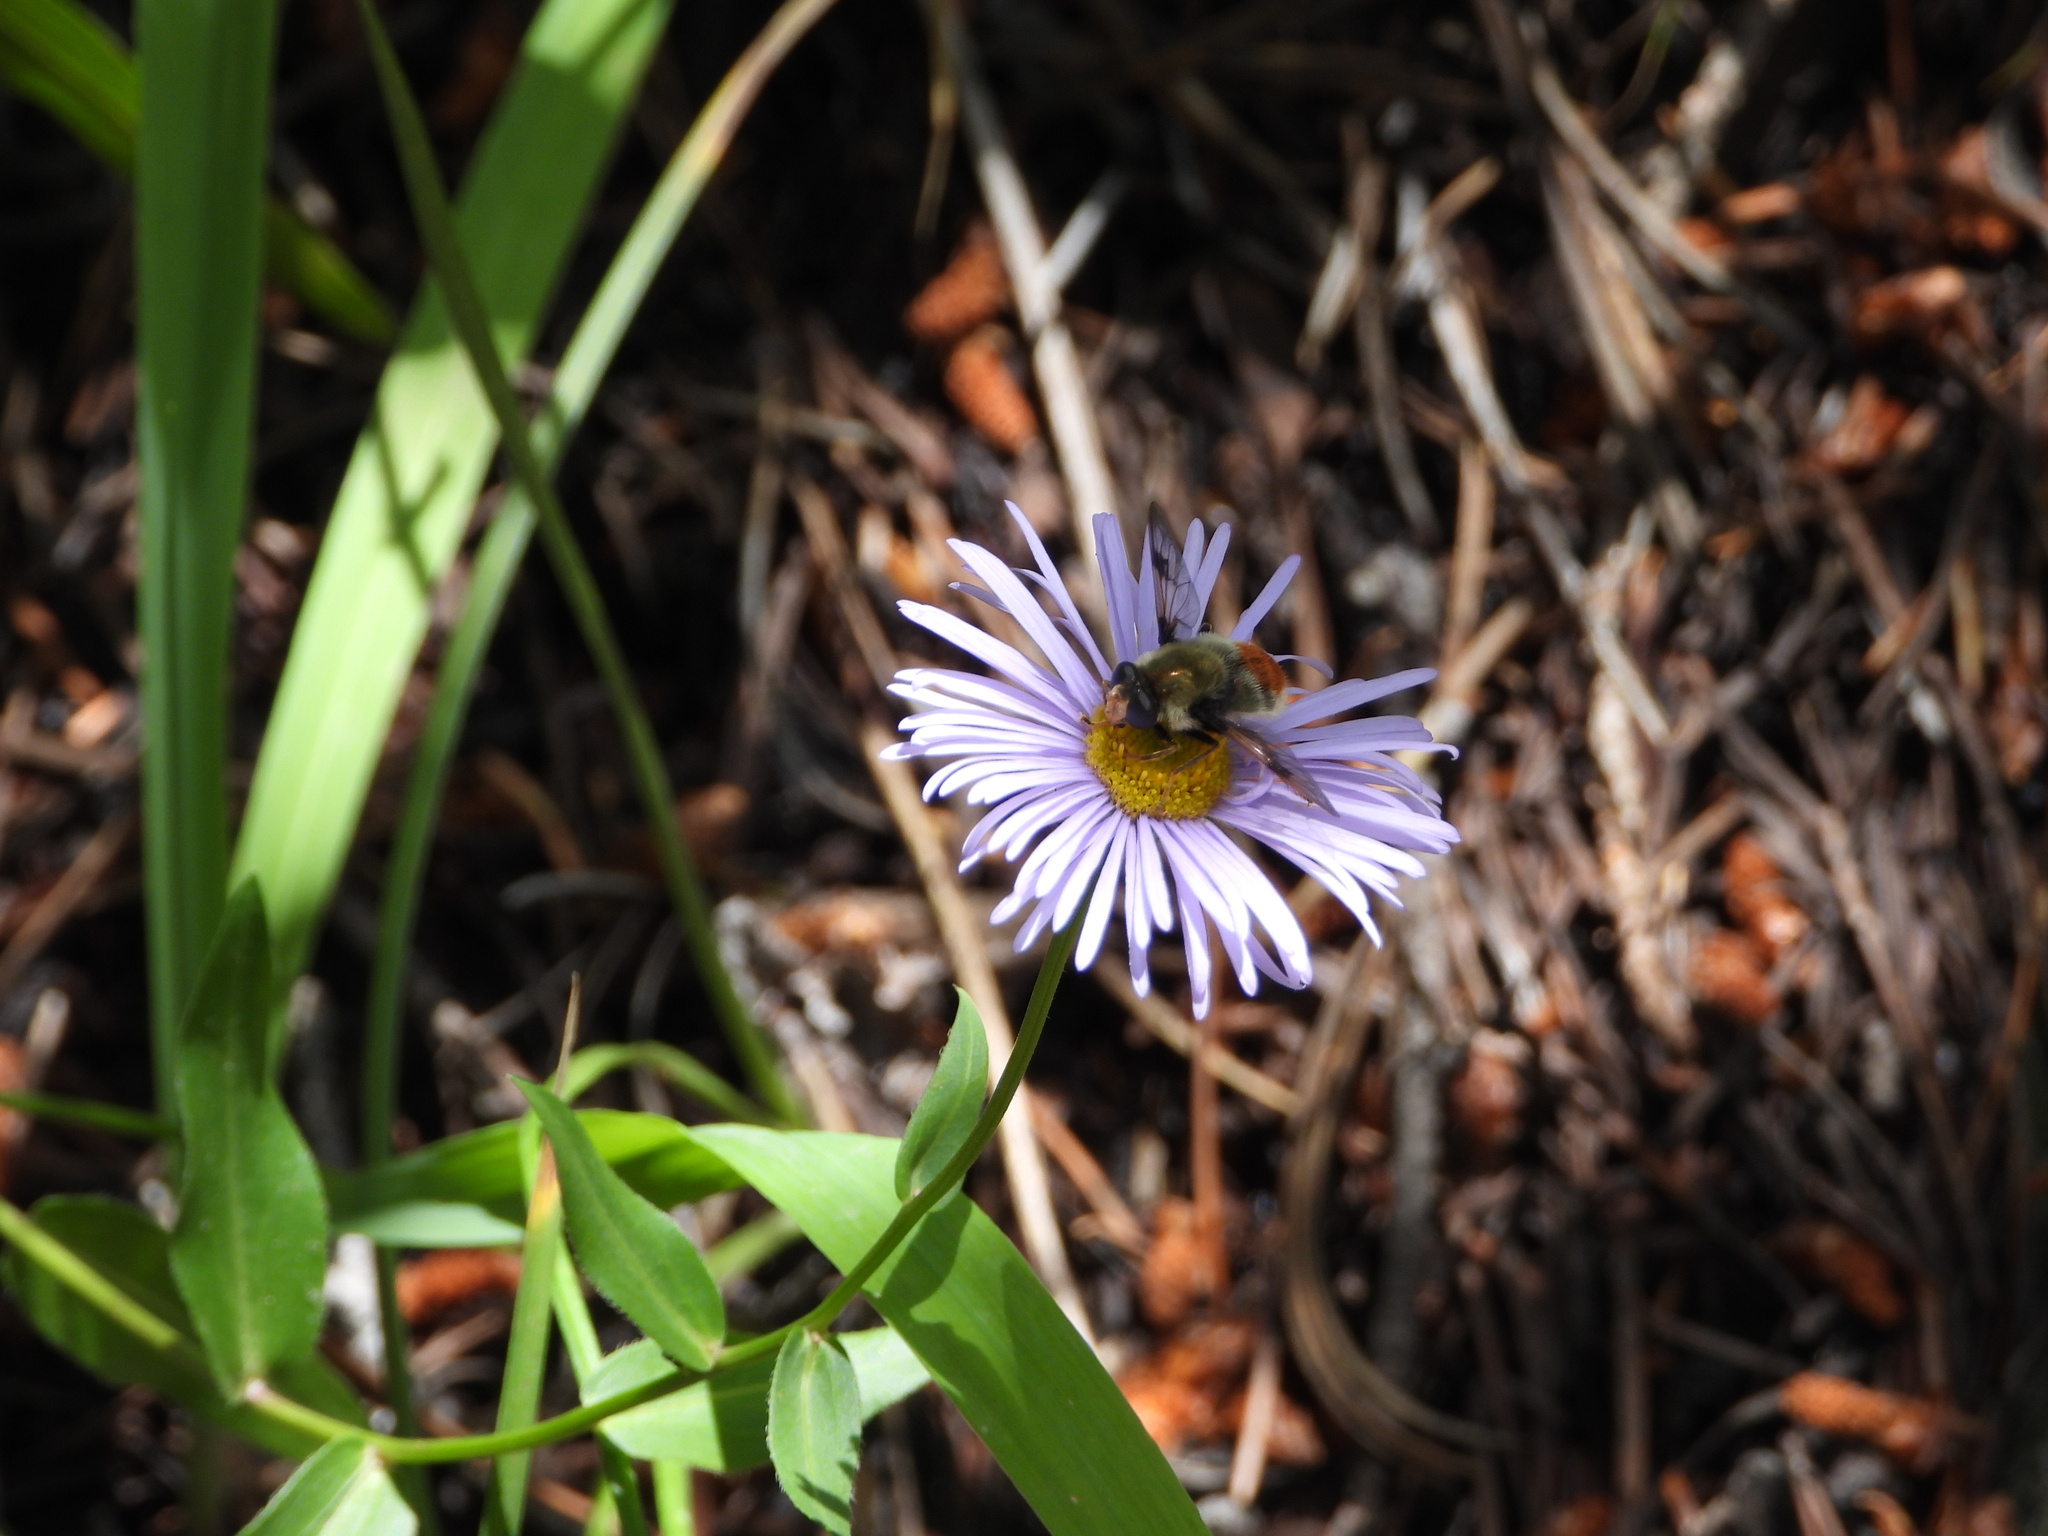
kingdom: Animalia
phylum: Arthropoda
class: Insecta
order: Diptera
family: Syrphidae
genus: Sericomyia
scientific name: Sericomyia flagrans
